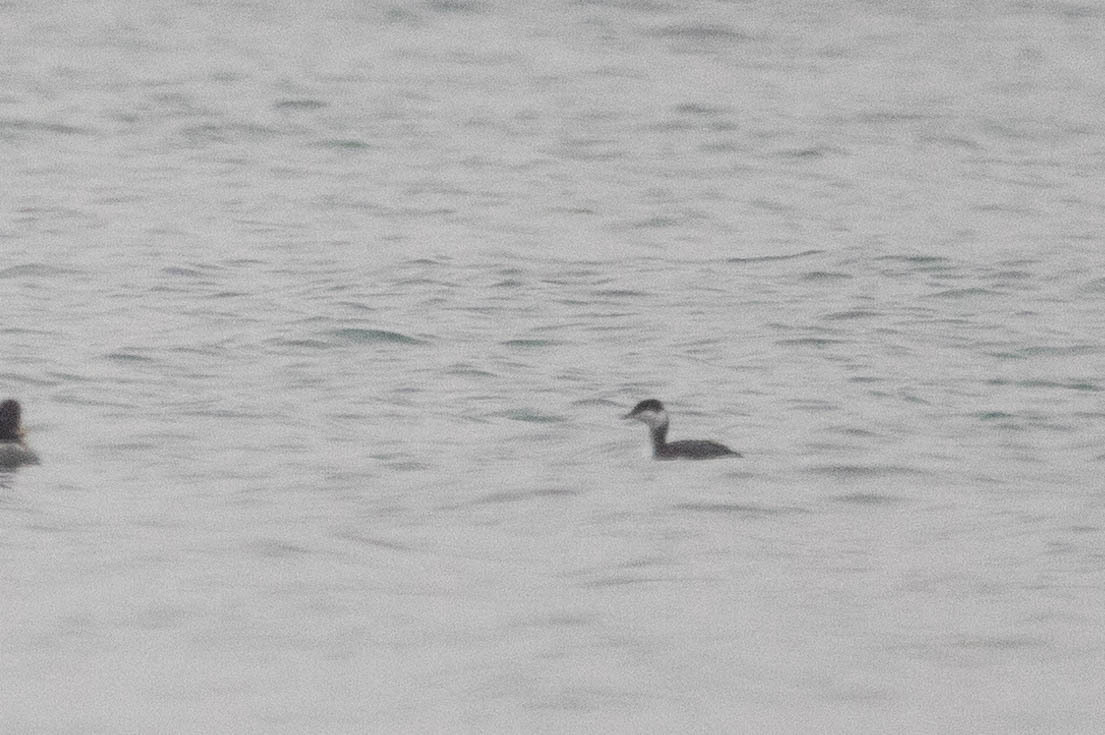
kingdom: Animalia
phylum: Chordata
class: Aves
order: Podicipediformes
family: Podicipedidae
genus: Podiceps
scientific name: Podiceps auritus
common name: Horned grebe
